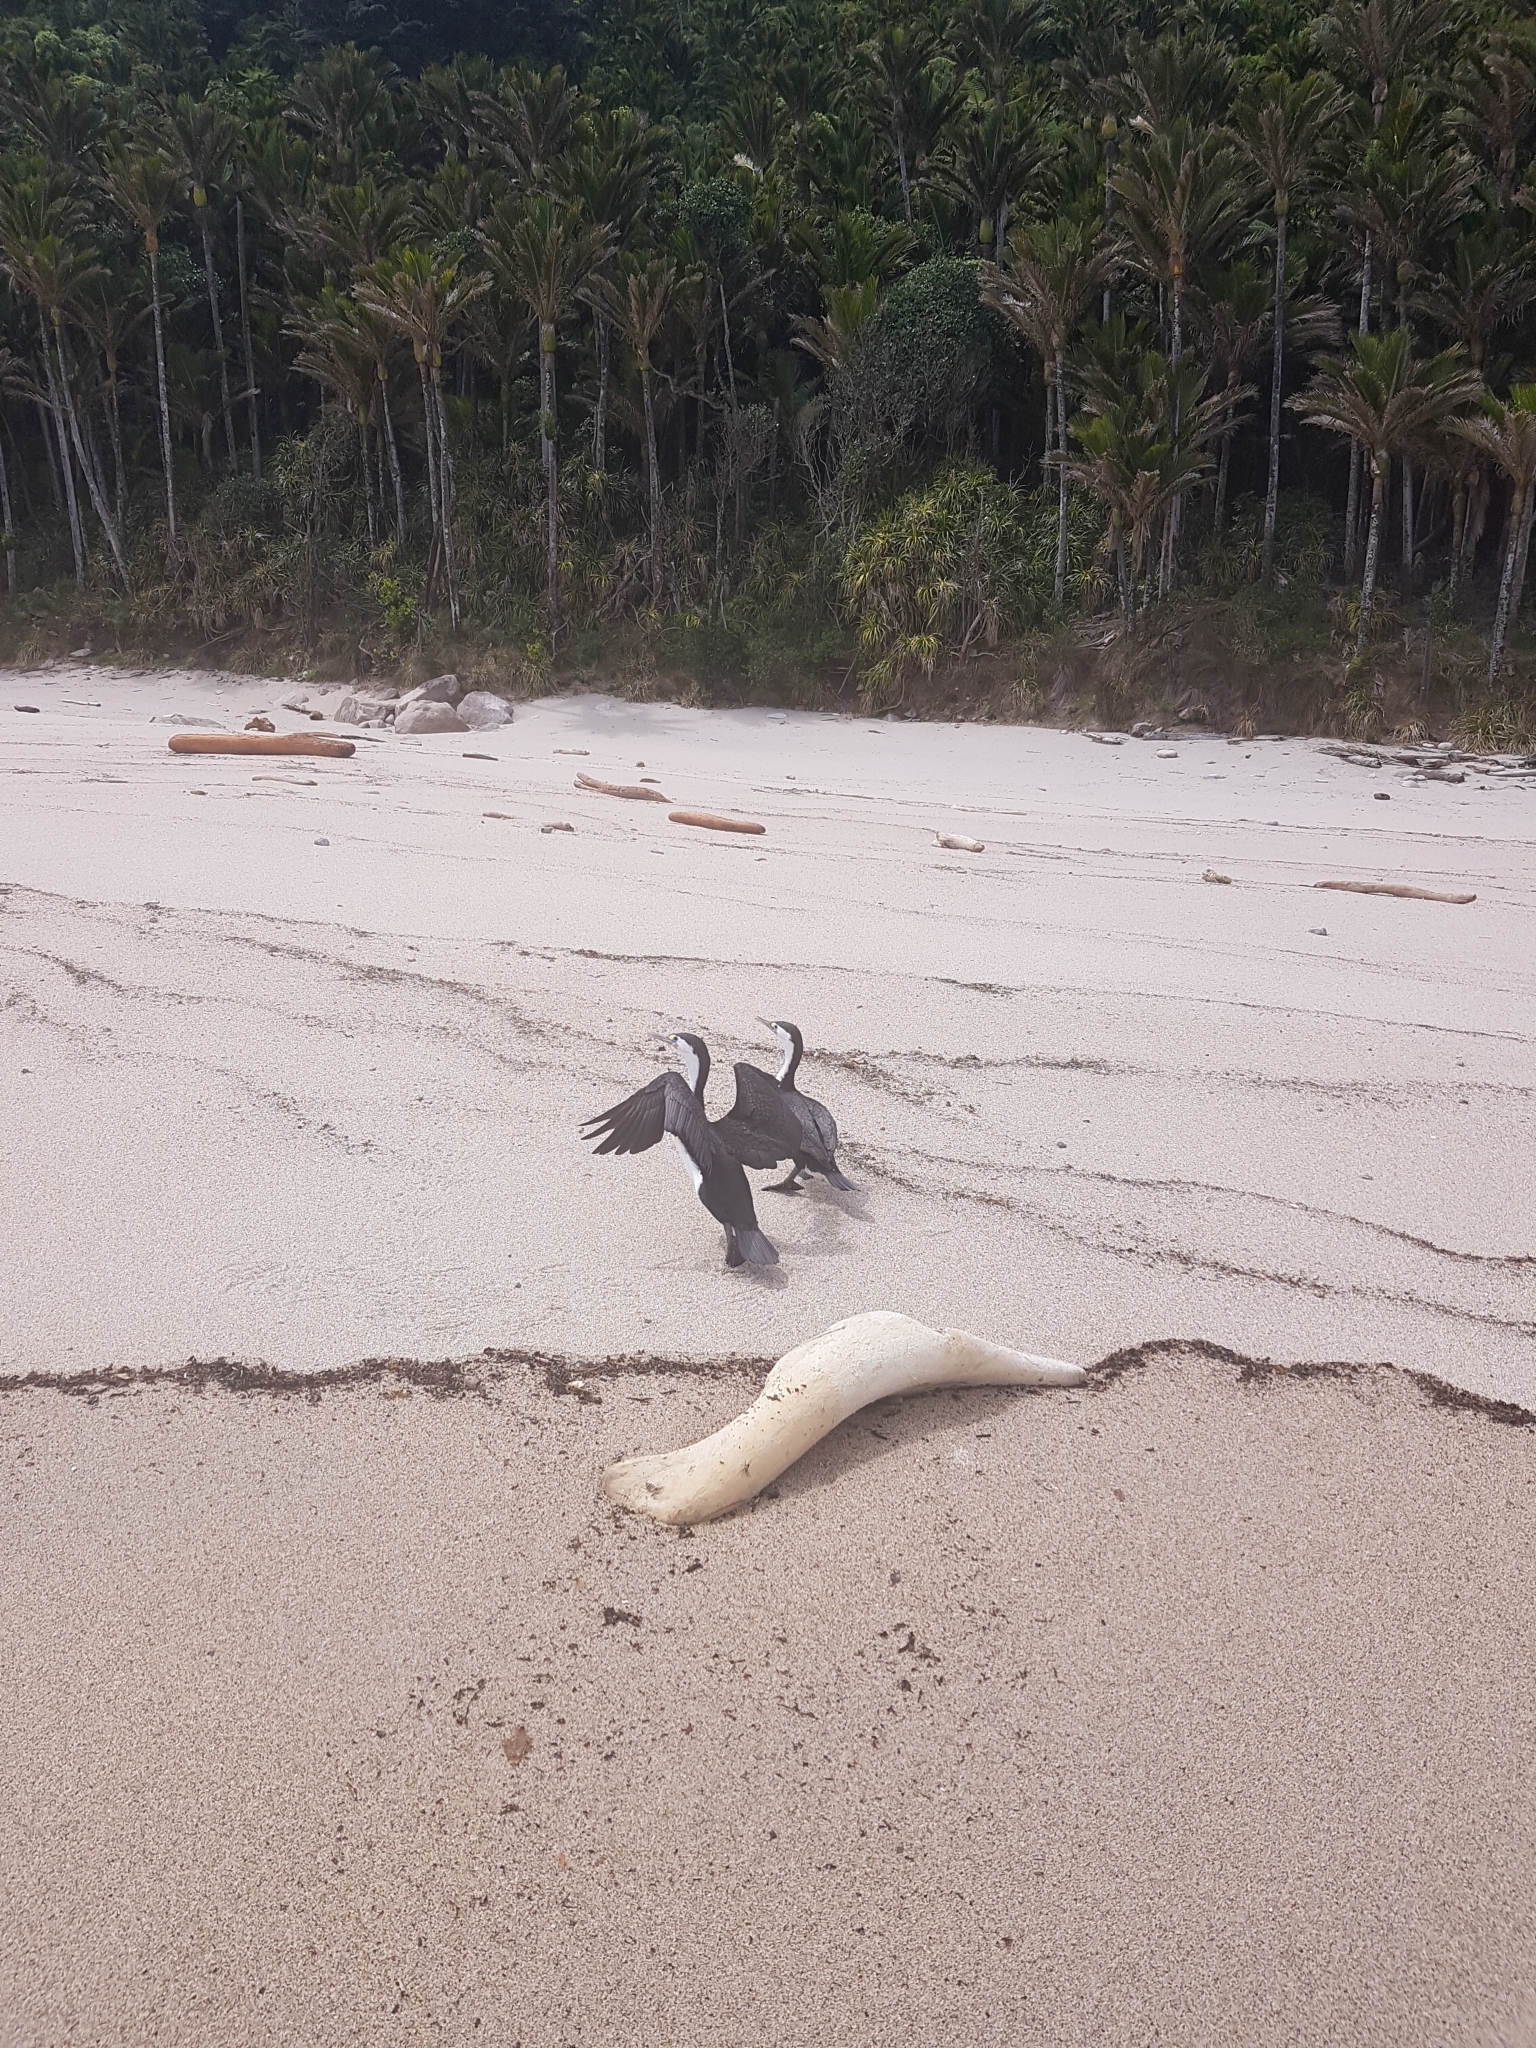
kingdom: Animalia
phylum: Chordata
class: Aves
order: Suliformes
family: Phalacrocoracidae
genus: Phalacrocorax
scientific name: Phalacrocorax varius
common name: Pied cormorant
